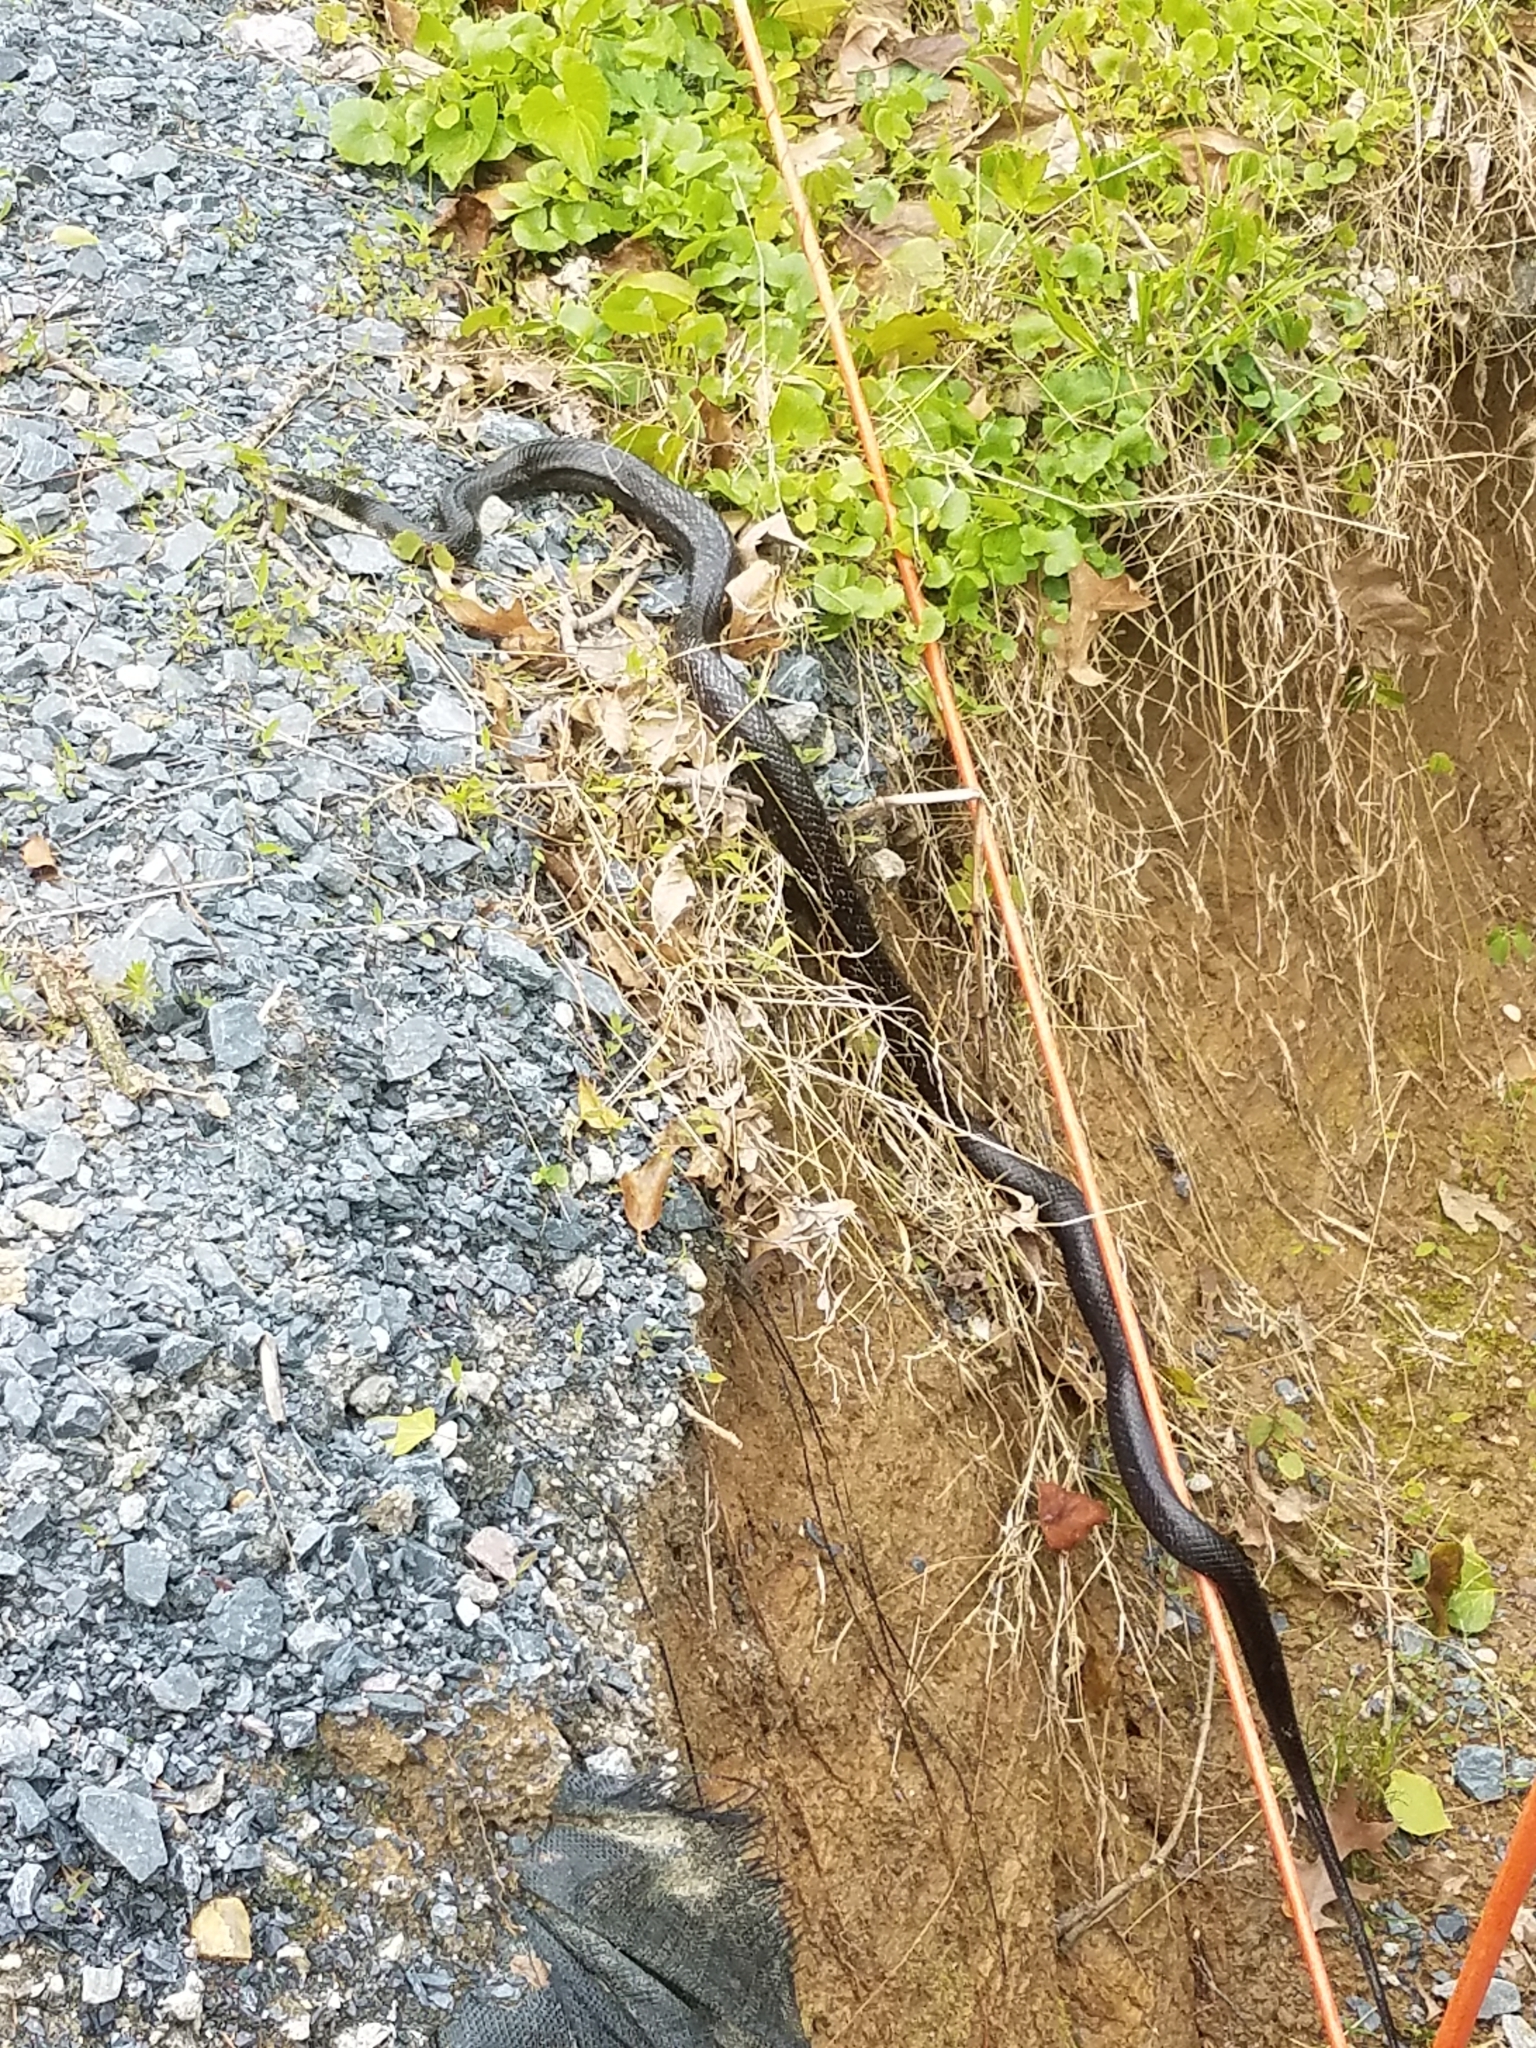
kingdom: Animalia
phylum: Chordata
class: Squamata
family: Colubridae
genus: Pantherophis
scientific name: Pantherophis alleghaniensis
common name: Eastern rat snake
